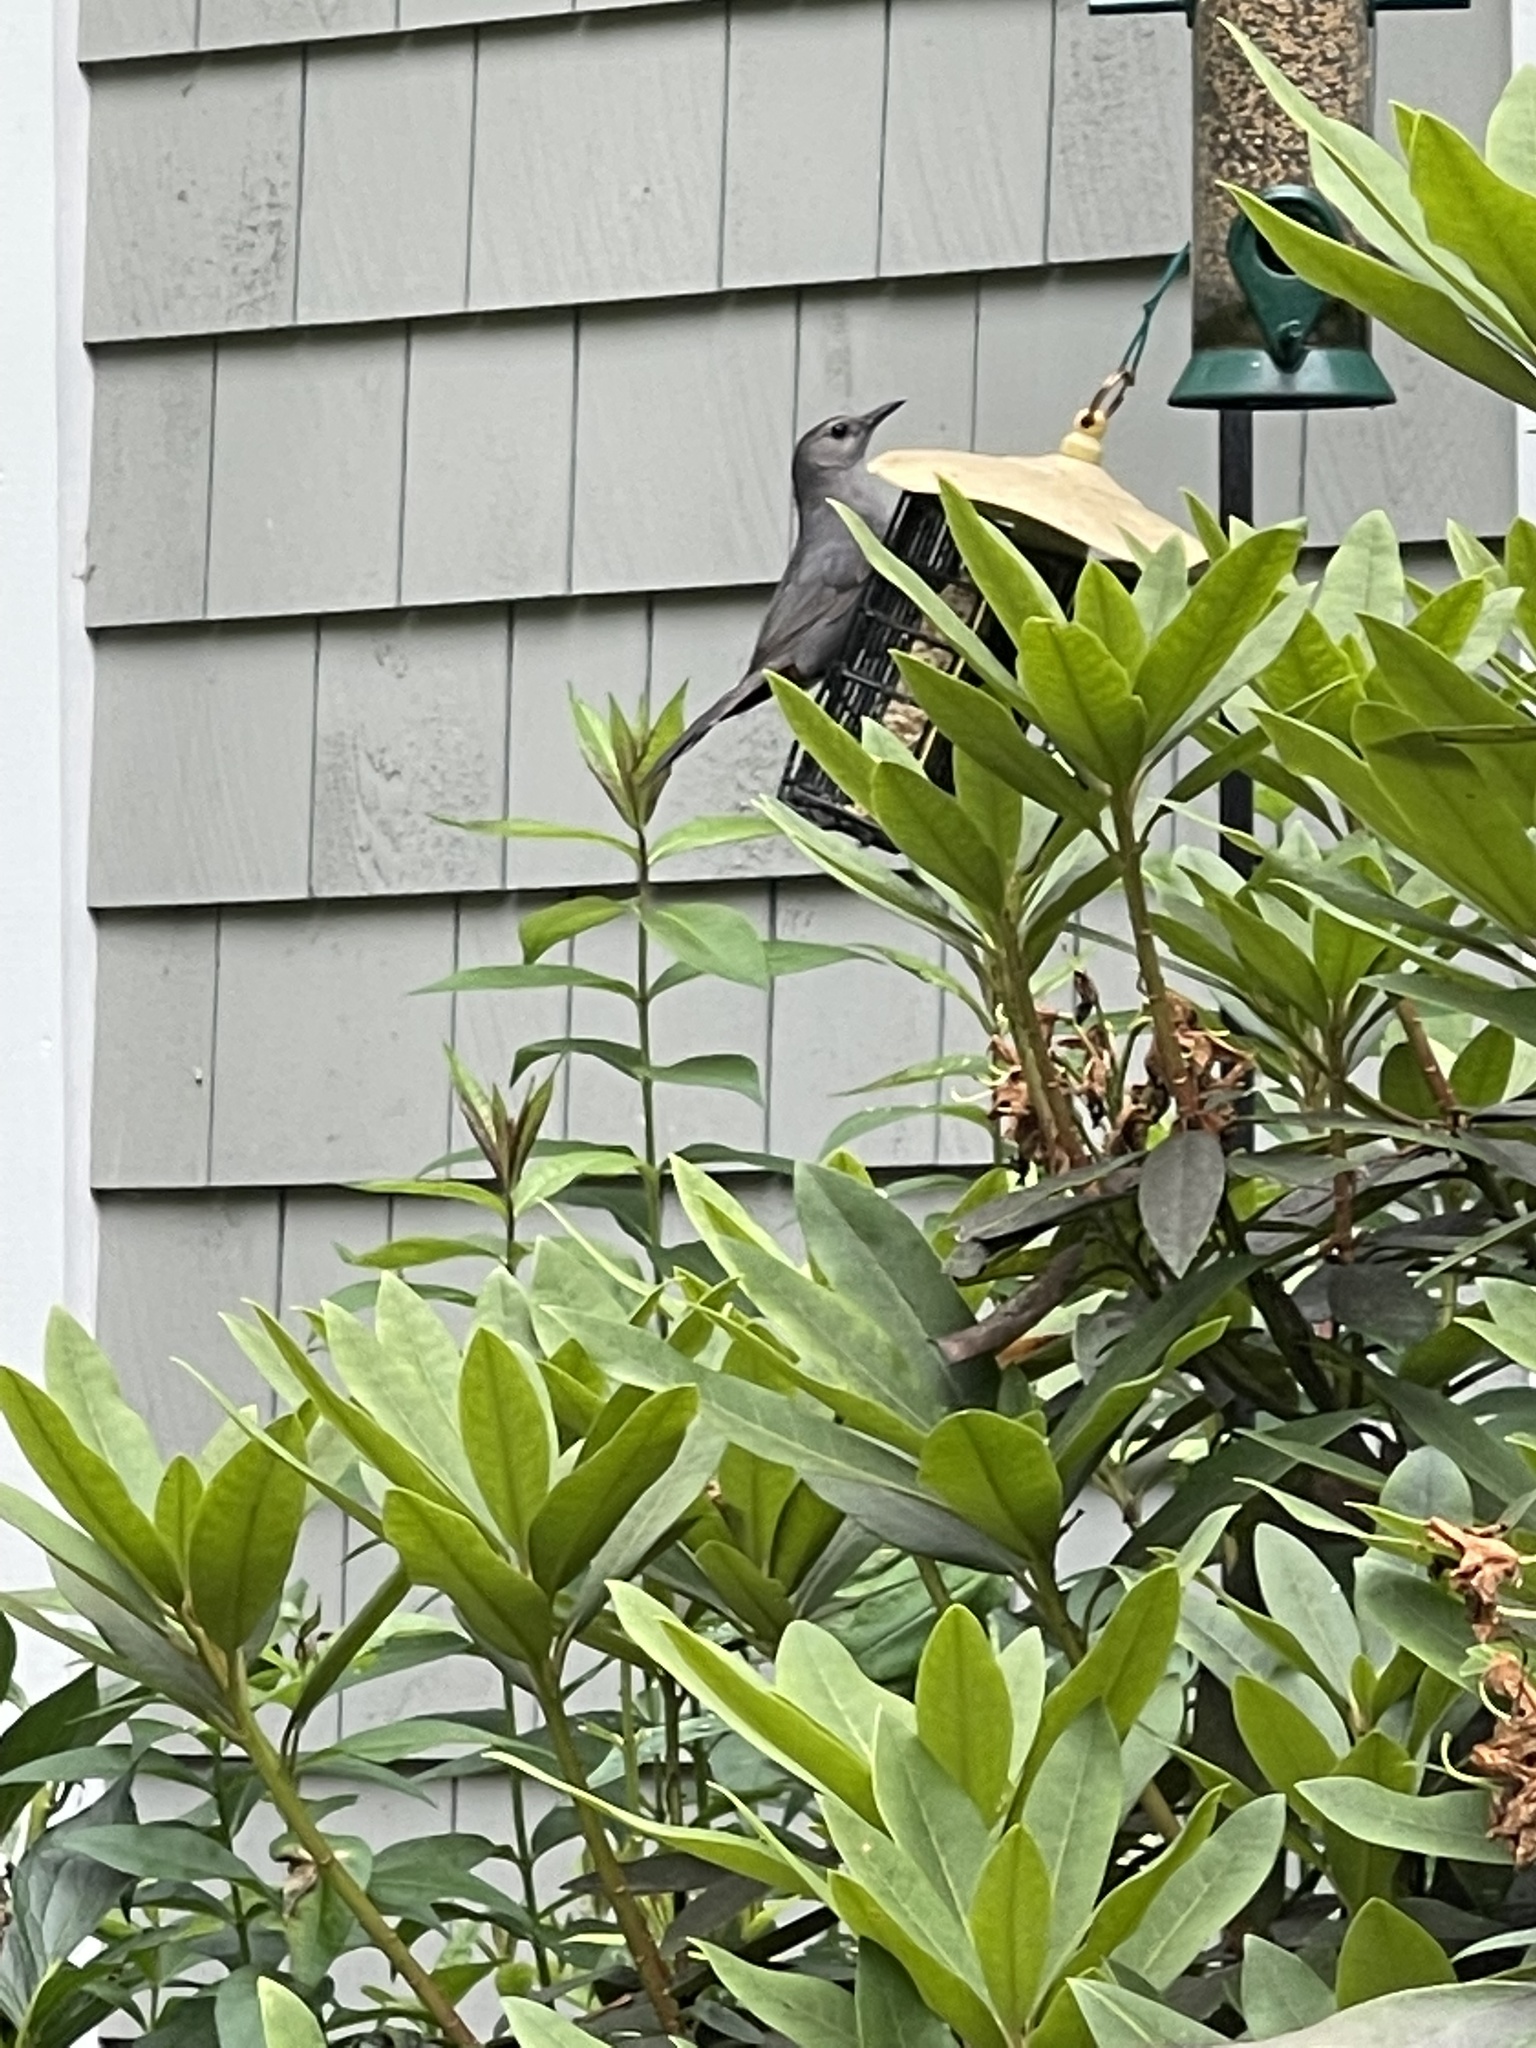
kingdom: Animalia
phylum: Chordata
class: Aves
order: Passeriformes
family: Mimidae
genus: Dumetella
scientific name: Dumetella carolinensis
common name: Gray catbird
